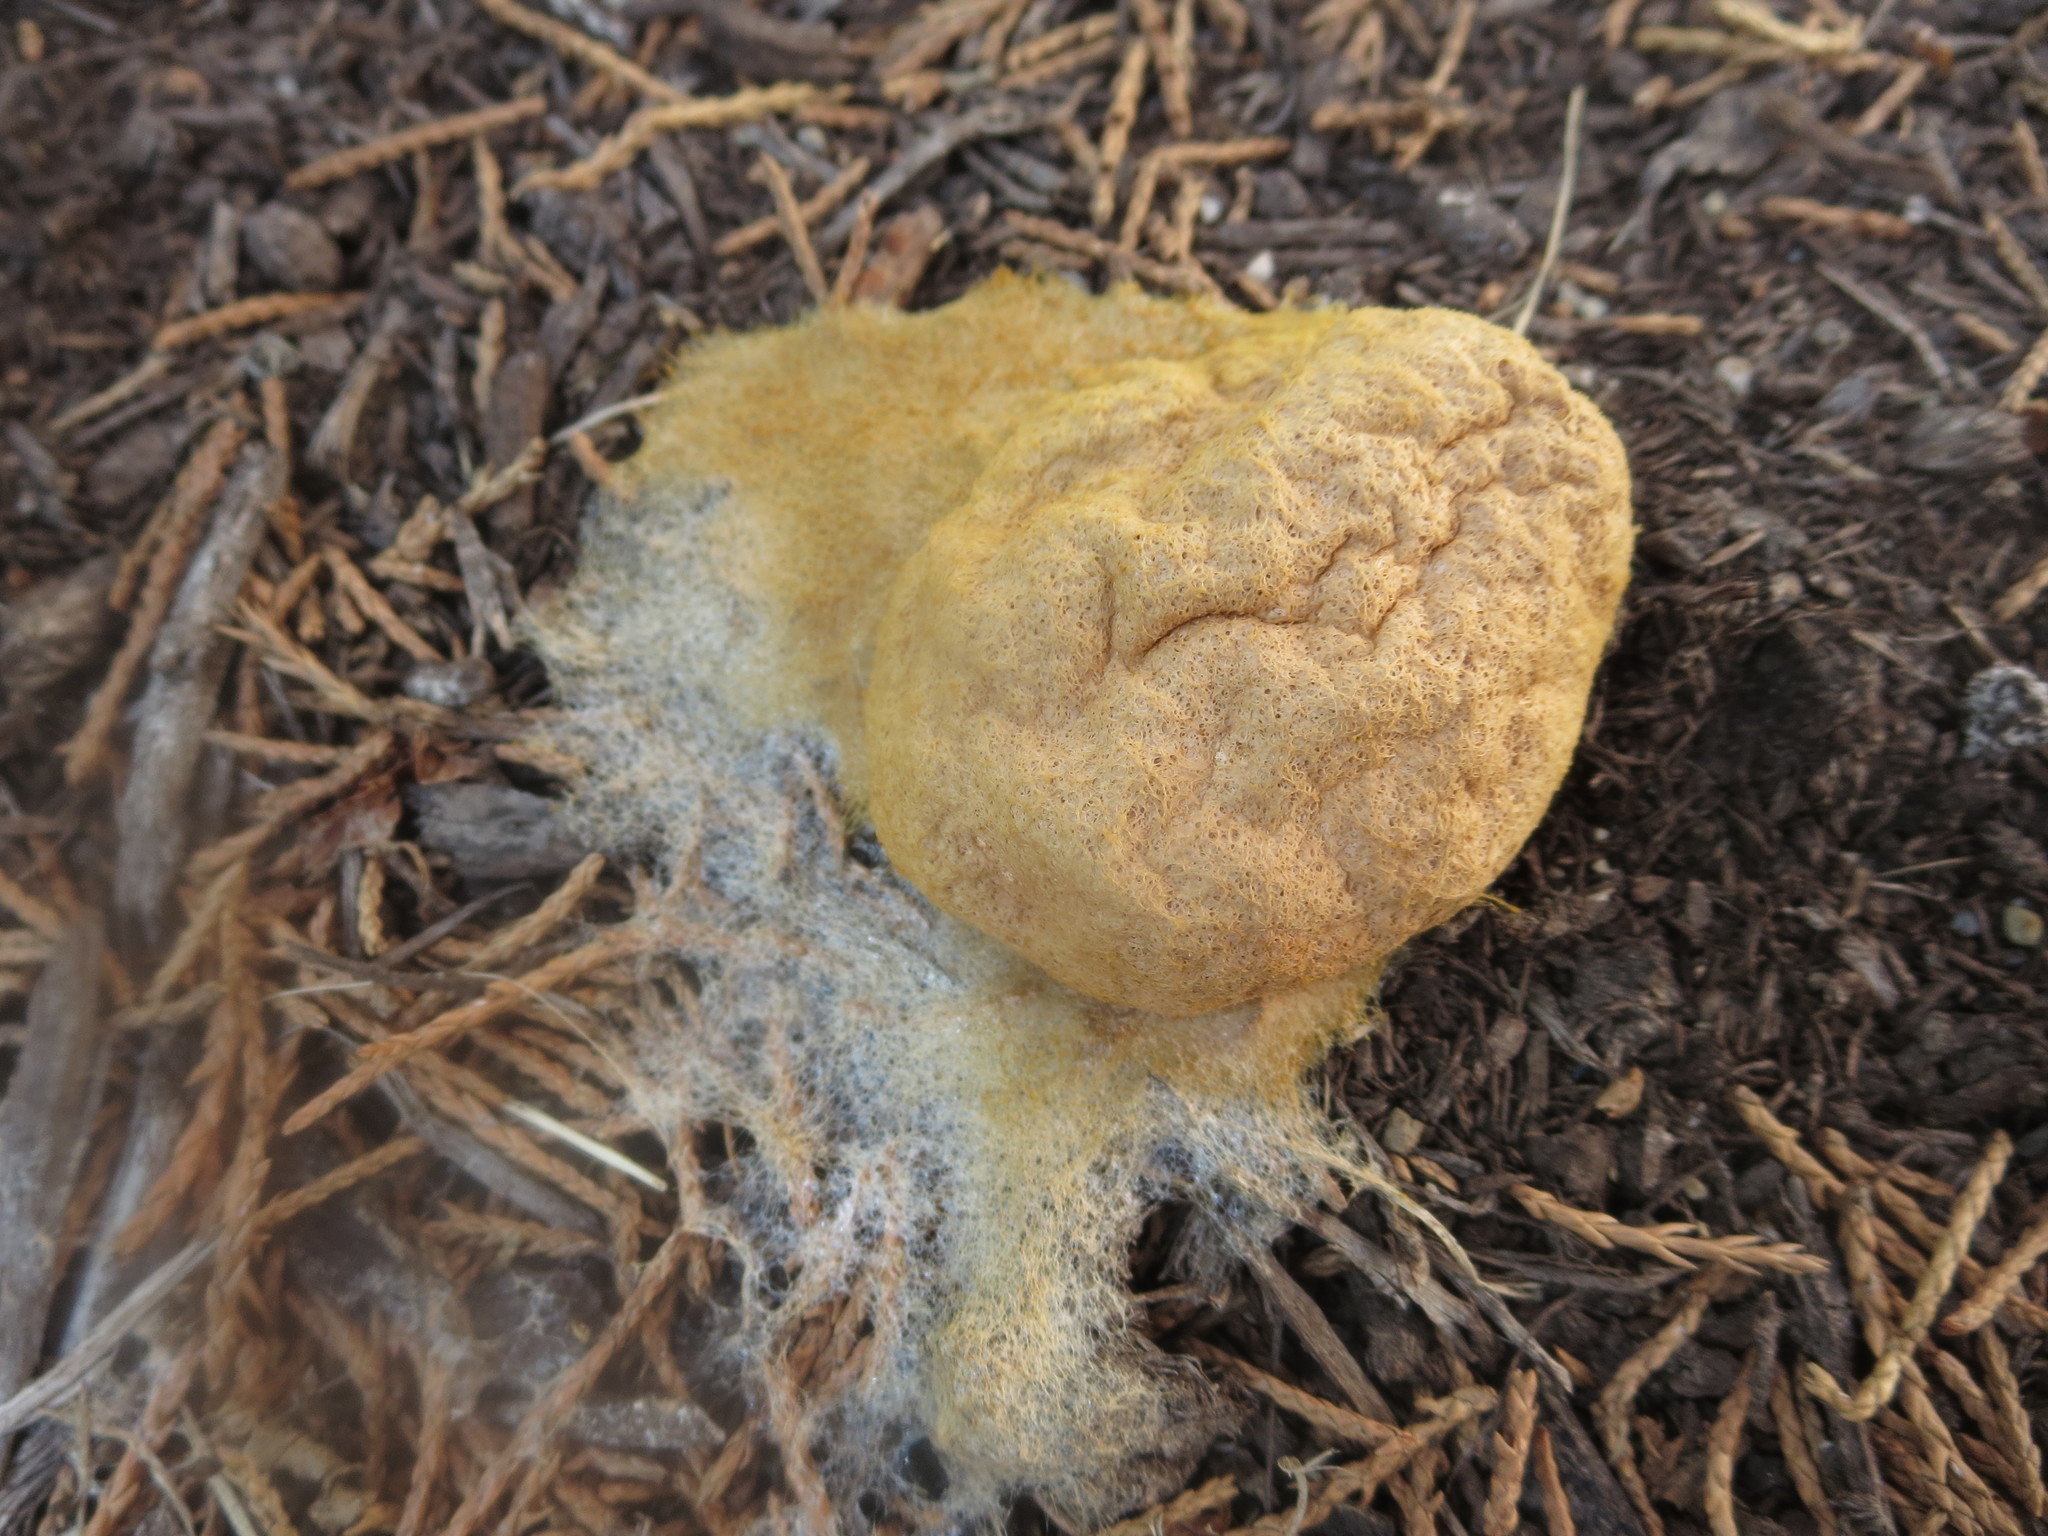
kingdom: Protozoa
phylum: Mycetozoa
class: Myxomycetes
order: Physarales
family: Physaraceae
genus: Fuligo
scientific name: Fuligo septica
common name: Dog vomit slime mold
